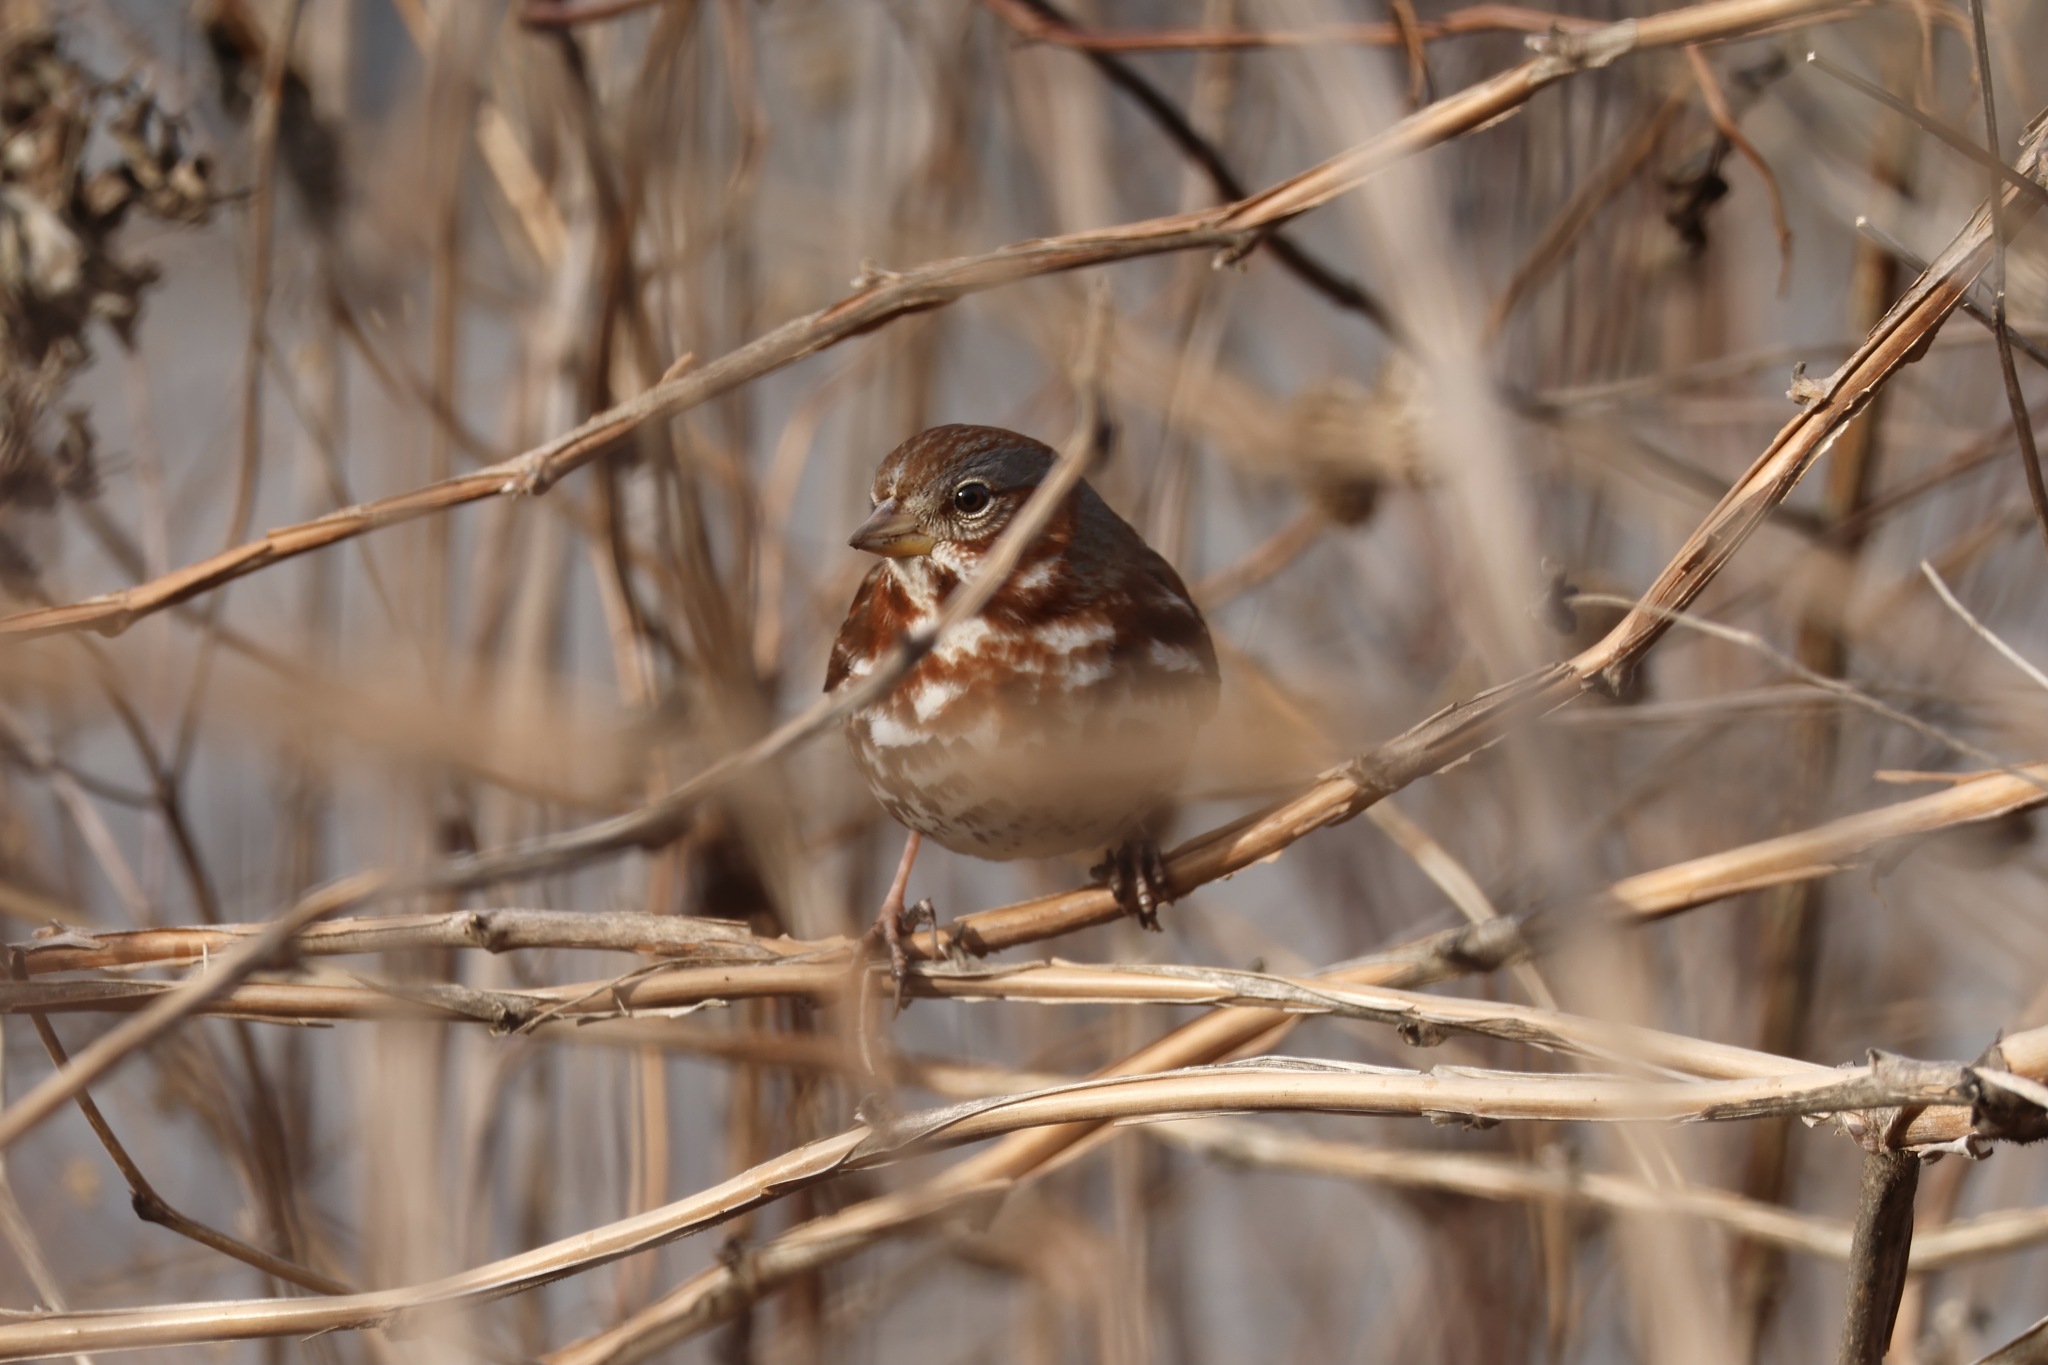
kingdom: Animalia
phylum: Chordata
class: Aves
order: Passeriformes
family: Passerellidae
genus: Passerella
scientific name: Passerella iliaca
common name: Fox sparrow
